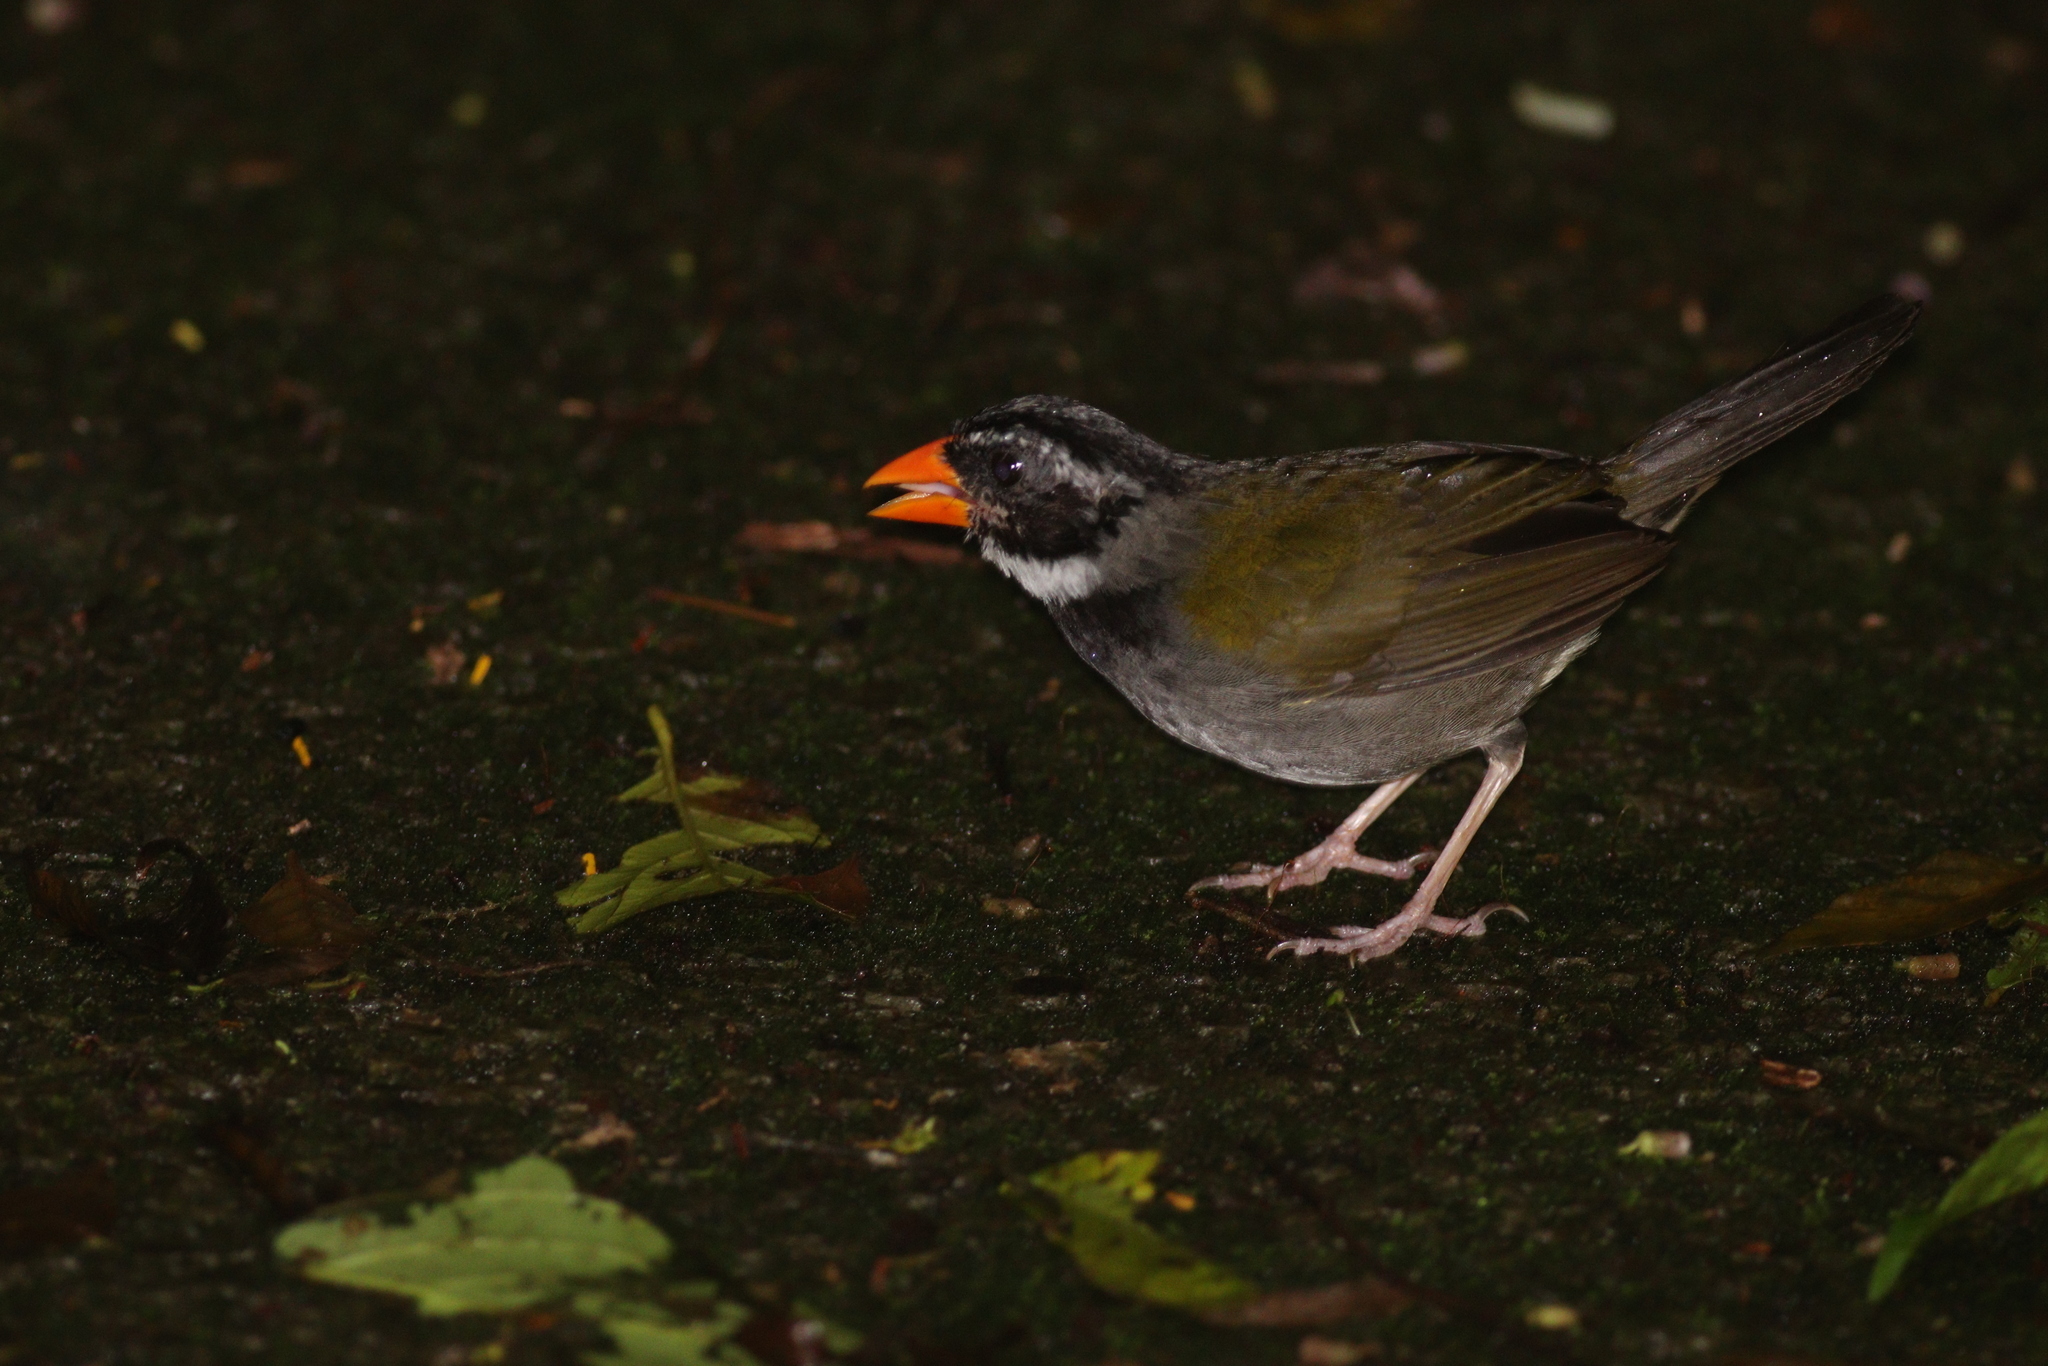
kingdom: Animalia
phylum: Chordata
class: Aves
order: Passeriformes
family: Passerellidae
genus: Arremon
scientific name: Arremon aurantiirostris
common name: Orange-billed sparrow
